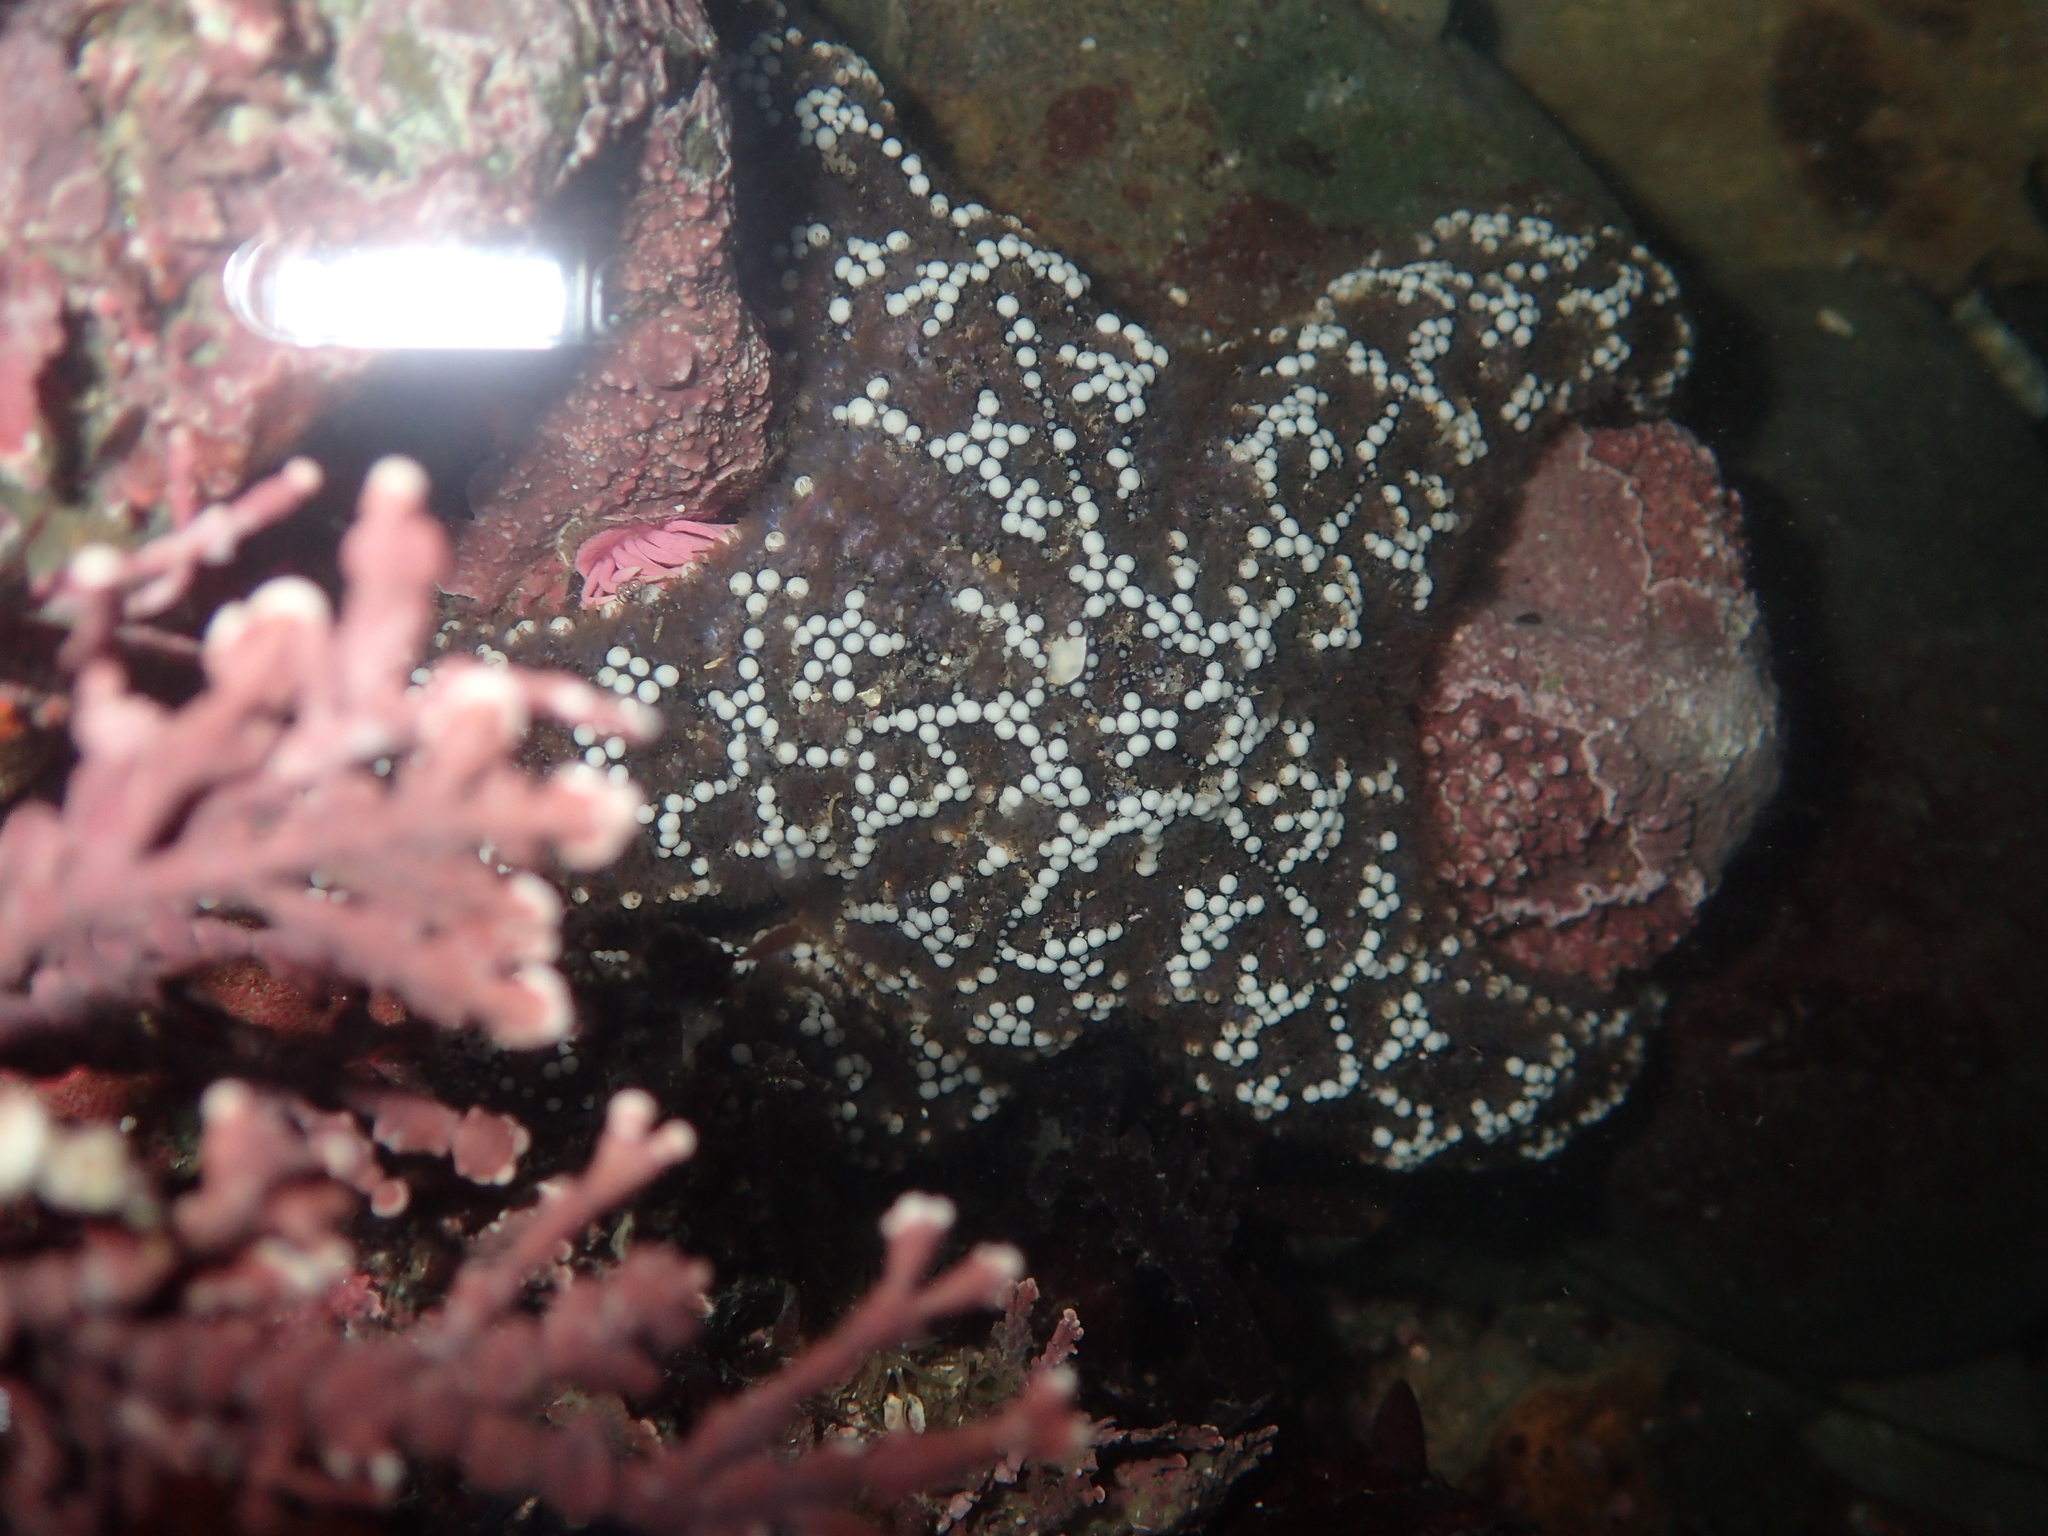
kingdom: Animalia
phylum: Echinodermata
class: Asteroidea
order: Forcipulatida
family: Asteriidae
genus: Pisaster
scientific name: Pisaster ochraceus
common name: Ochre stars
